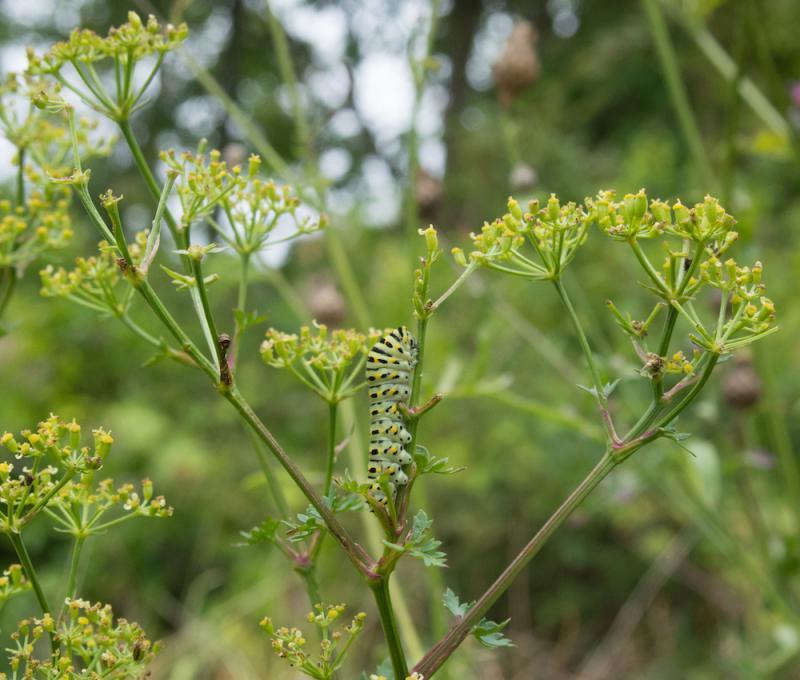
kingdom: Animalia
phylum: Arthropoda
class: Insecta
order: Lepidoptera
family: Papilionidae
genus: Papilio
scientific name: Papilio machaon
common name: Swallowtail
